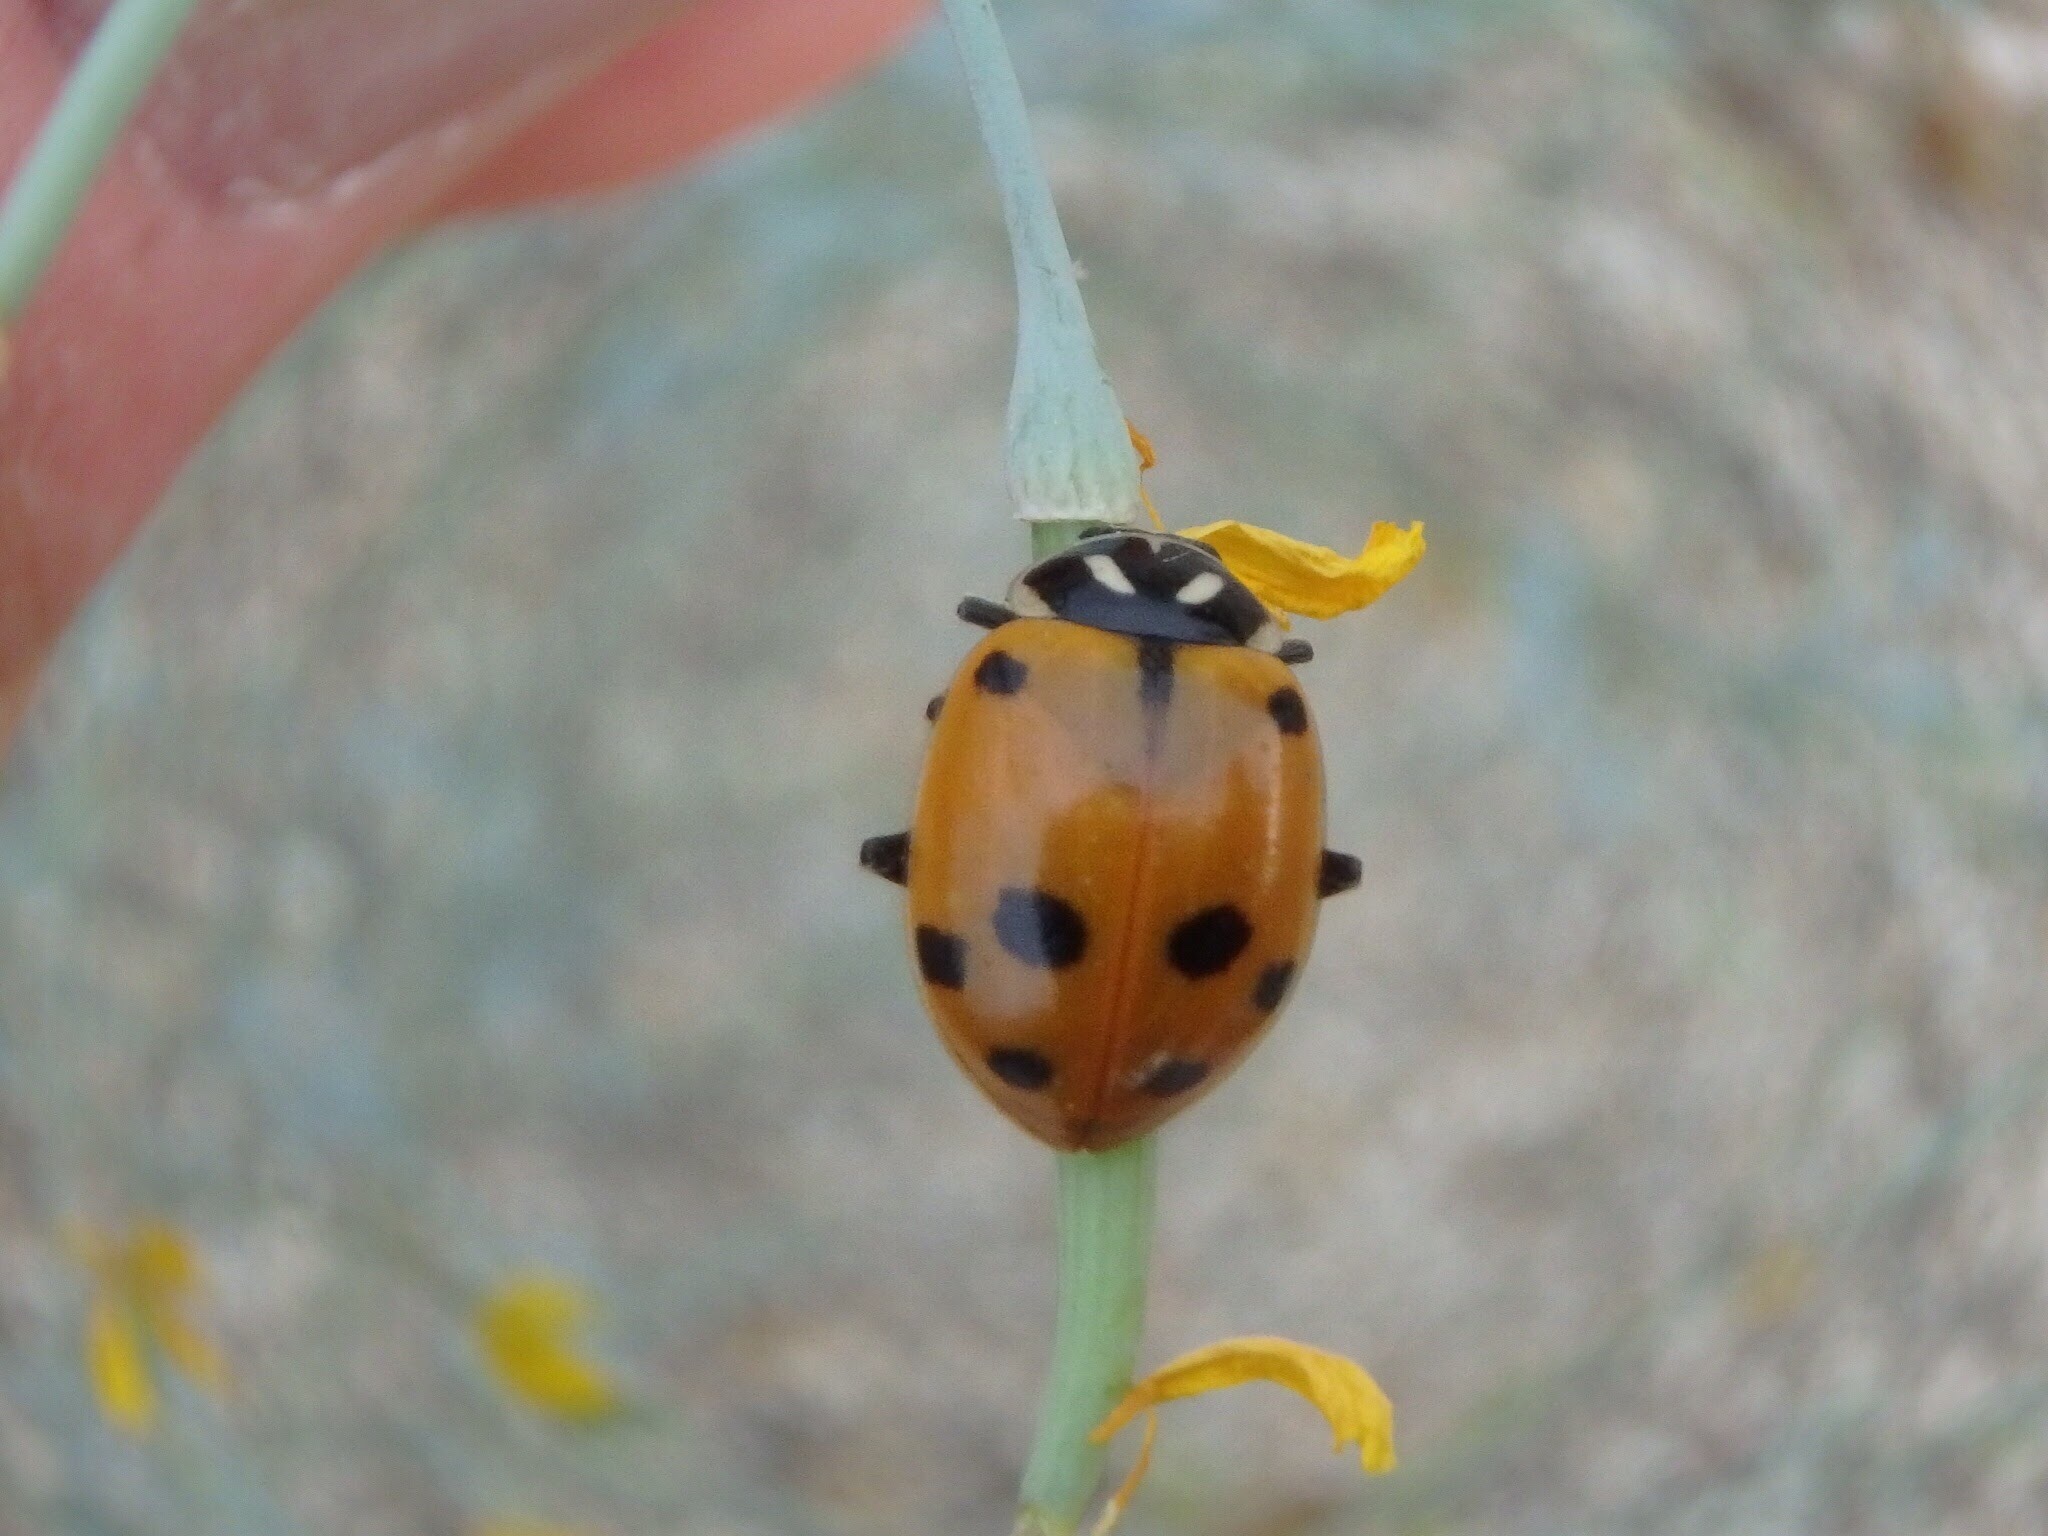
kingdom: Animalia
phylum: Arthropoda
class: Insecta
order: Coleoptera
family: Coccinellidae
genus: Hippodamia
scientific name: Hippodamia convergens
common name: Convergent lady beetle
